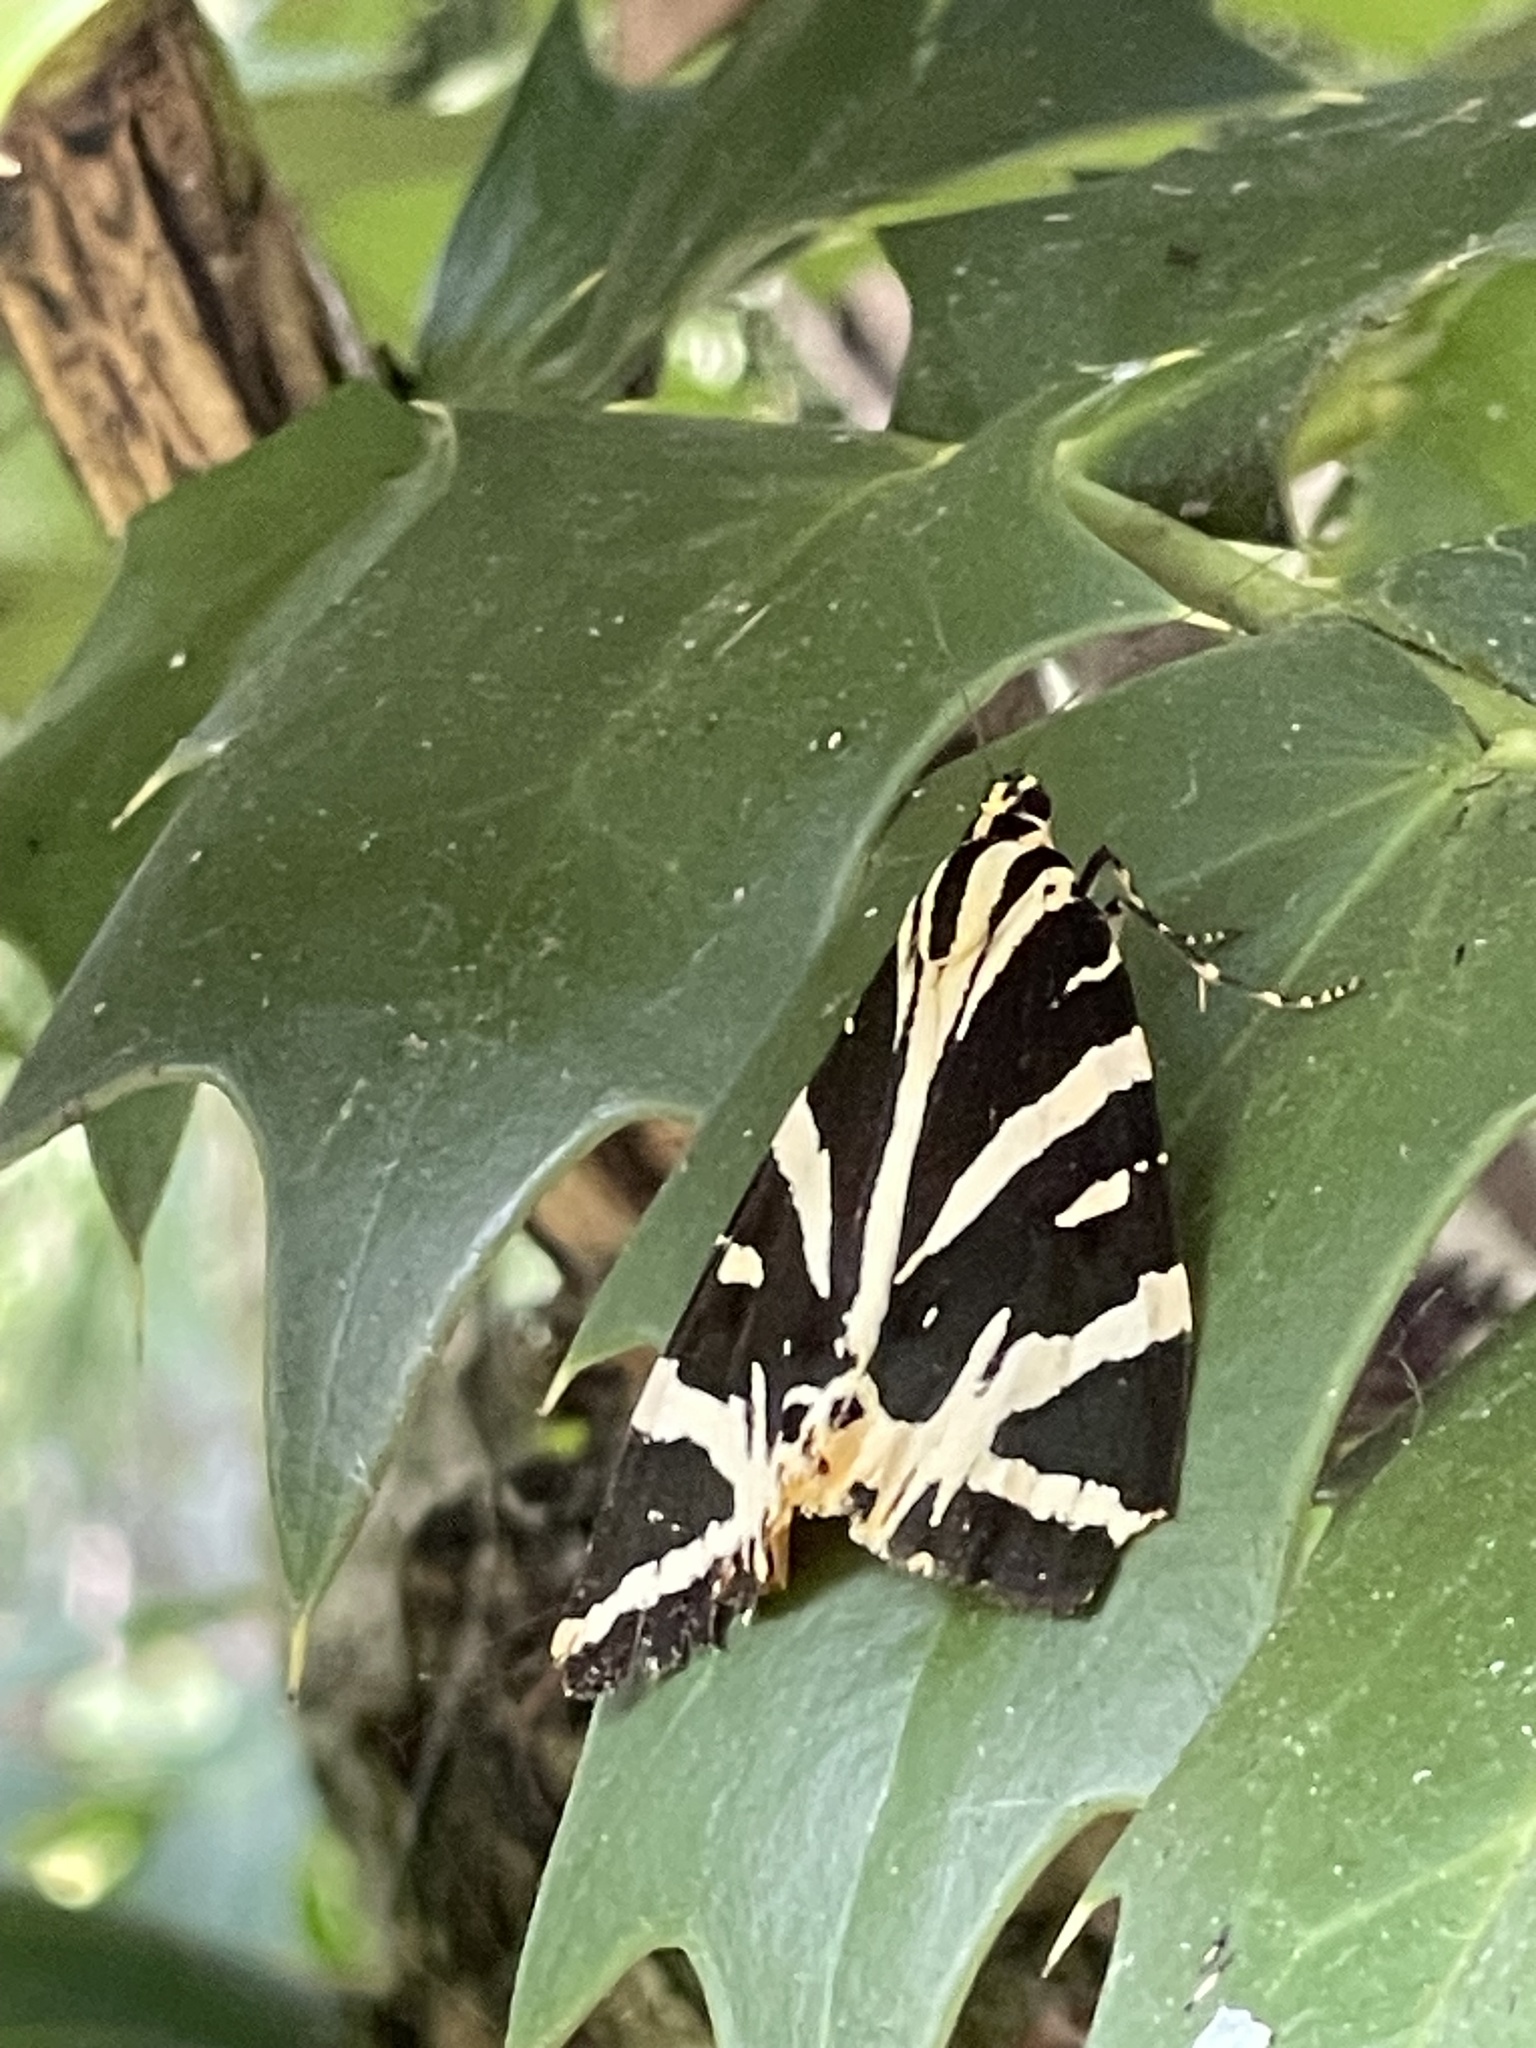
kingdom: Animalia
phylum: Arthropoda
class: Insecta
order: Lepidoptera
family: Erebidae
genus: Euplagia
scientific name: Euplagia quadripunctaria
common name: Jersey tiger
